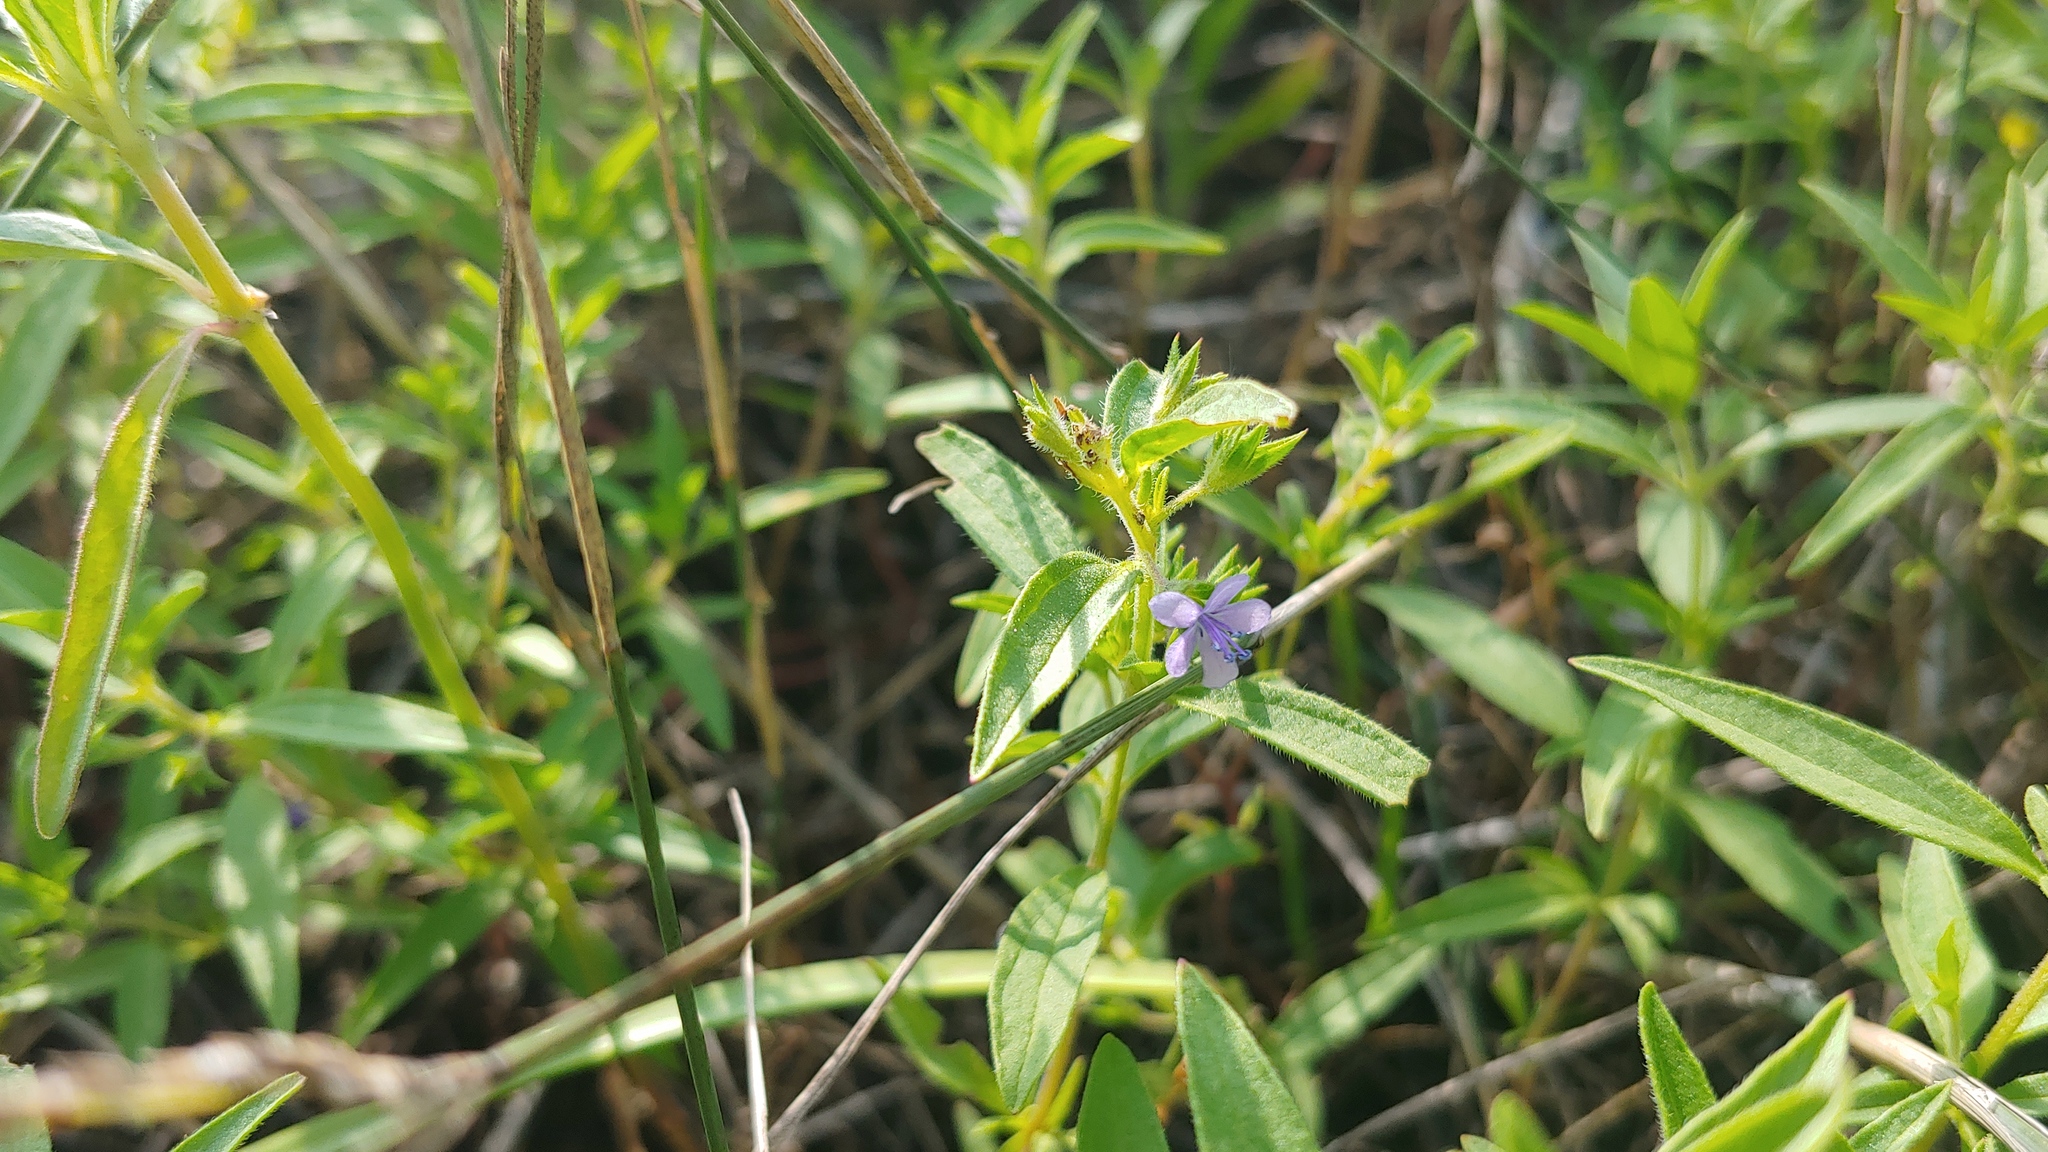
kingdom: Plantae
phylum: Tracheophyta
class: Magnoliopsida
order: Lamiales
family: Lamiaceae
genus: Trichostema
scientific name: Trichostema brachiatum
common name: False pennyroyal
